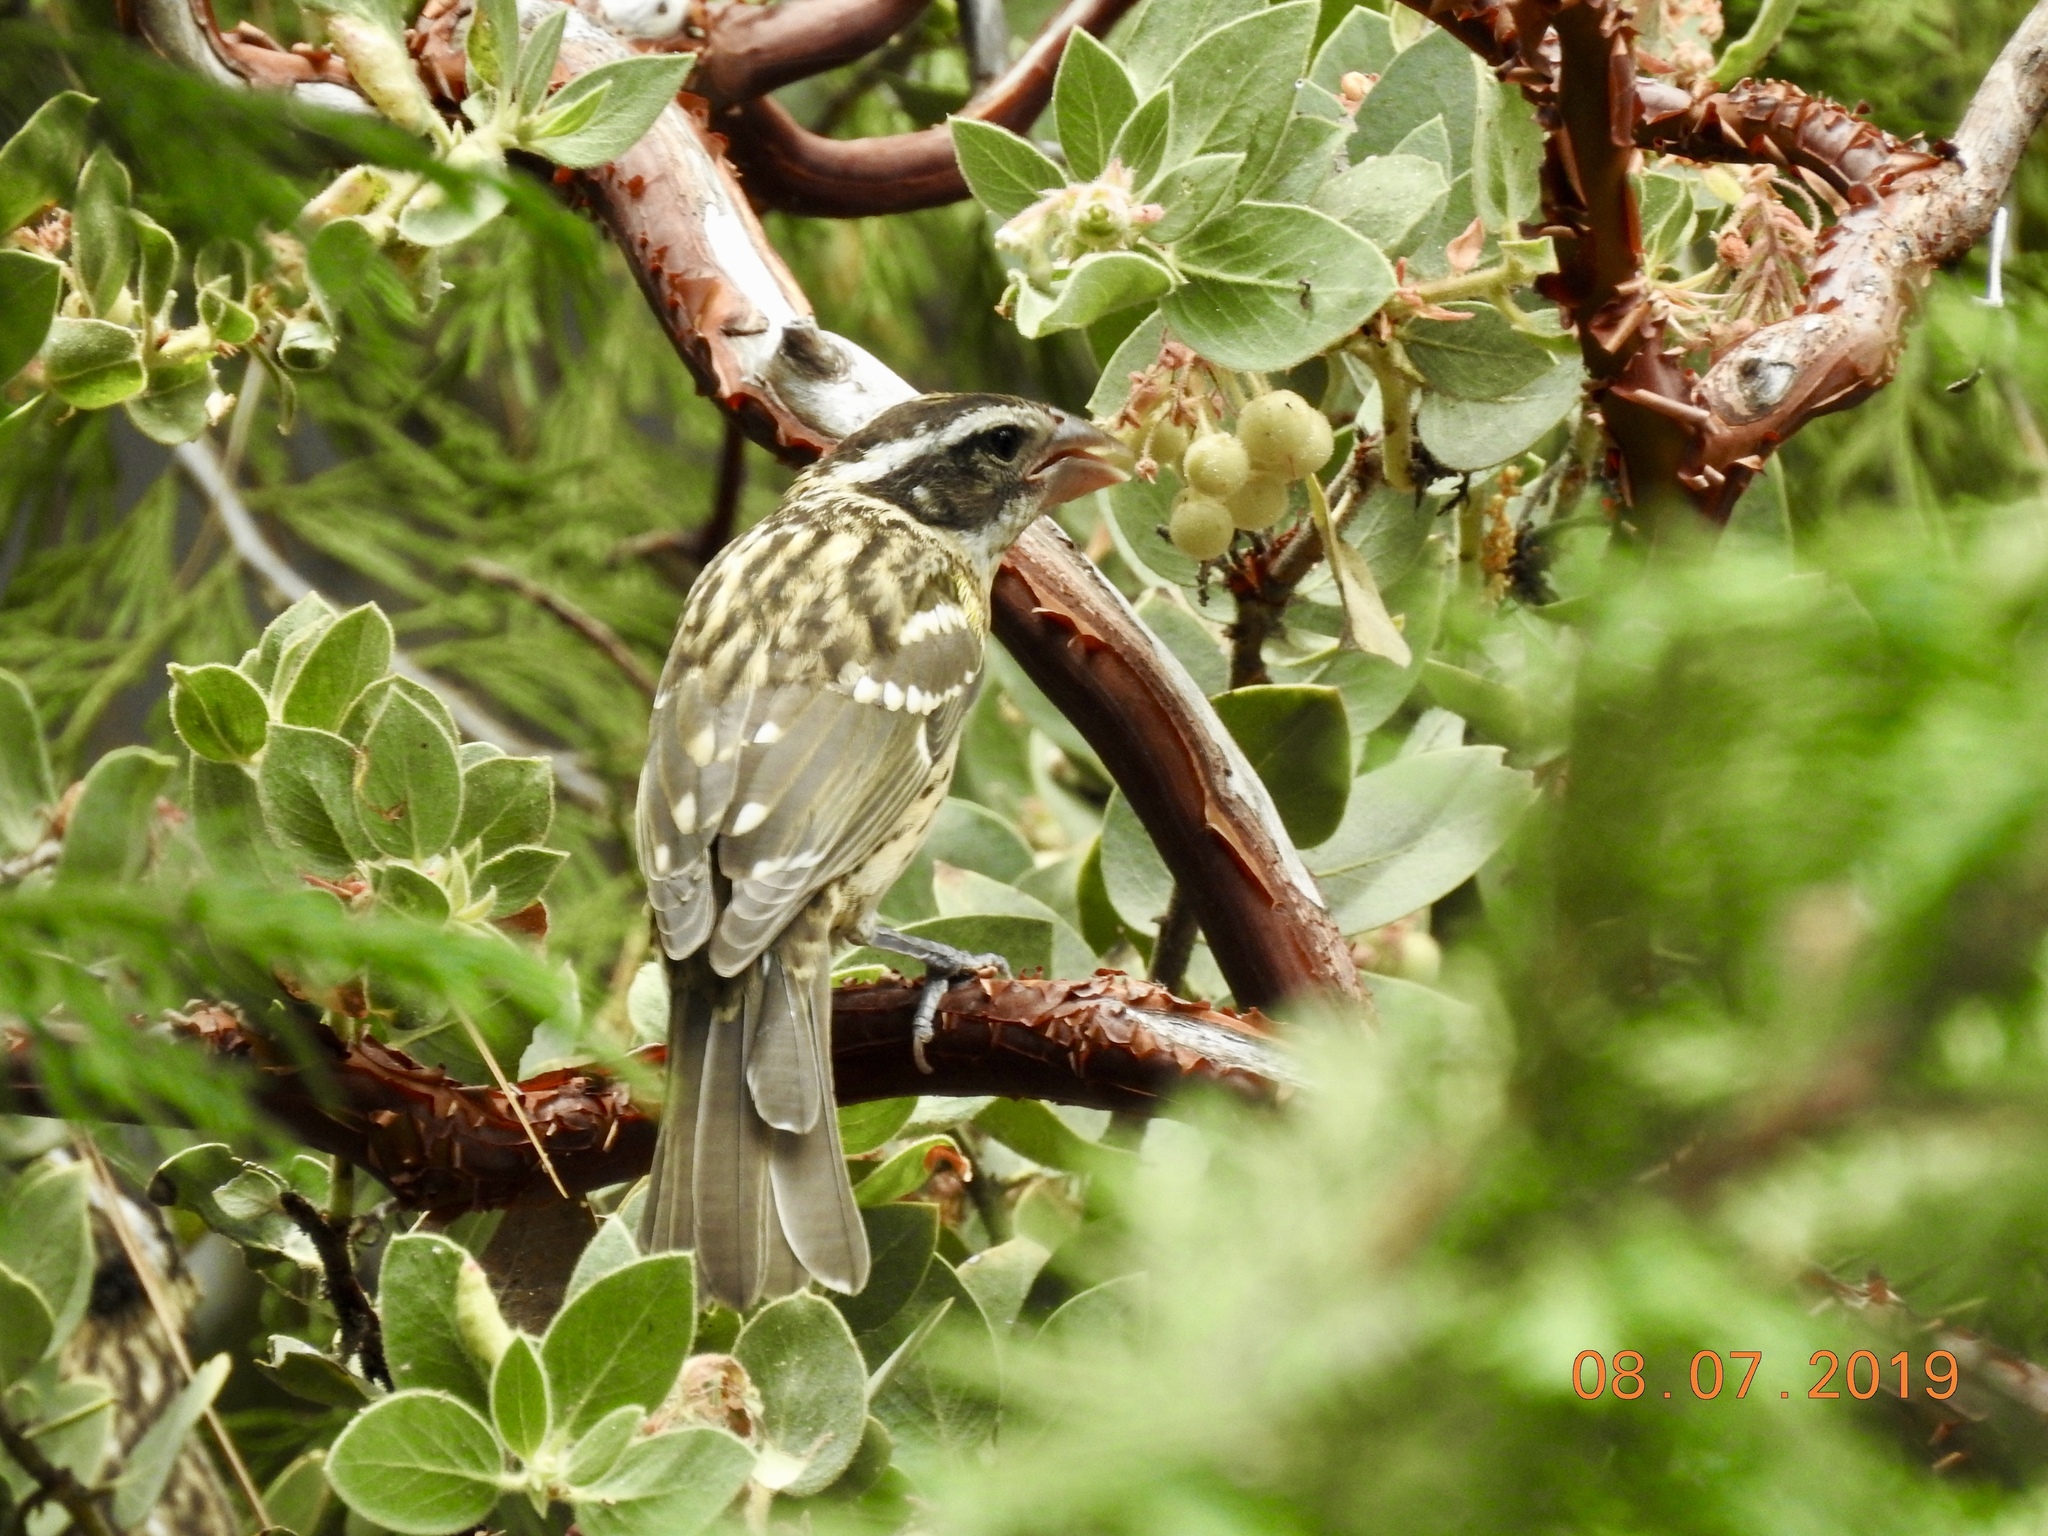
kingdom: Animalia
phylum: Chordata
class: Aves
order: Passeriformes
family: Cardinalidae
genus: Pheucticus
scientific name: Pheucticus melanocephalus
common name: Black-headed grosbeak
